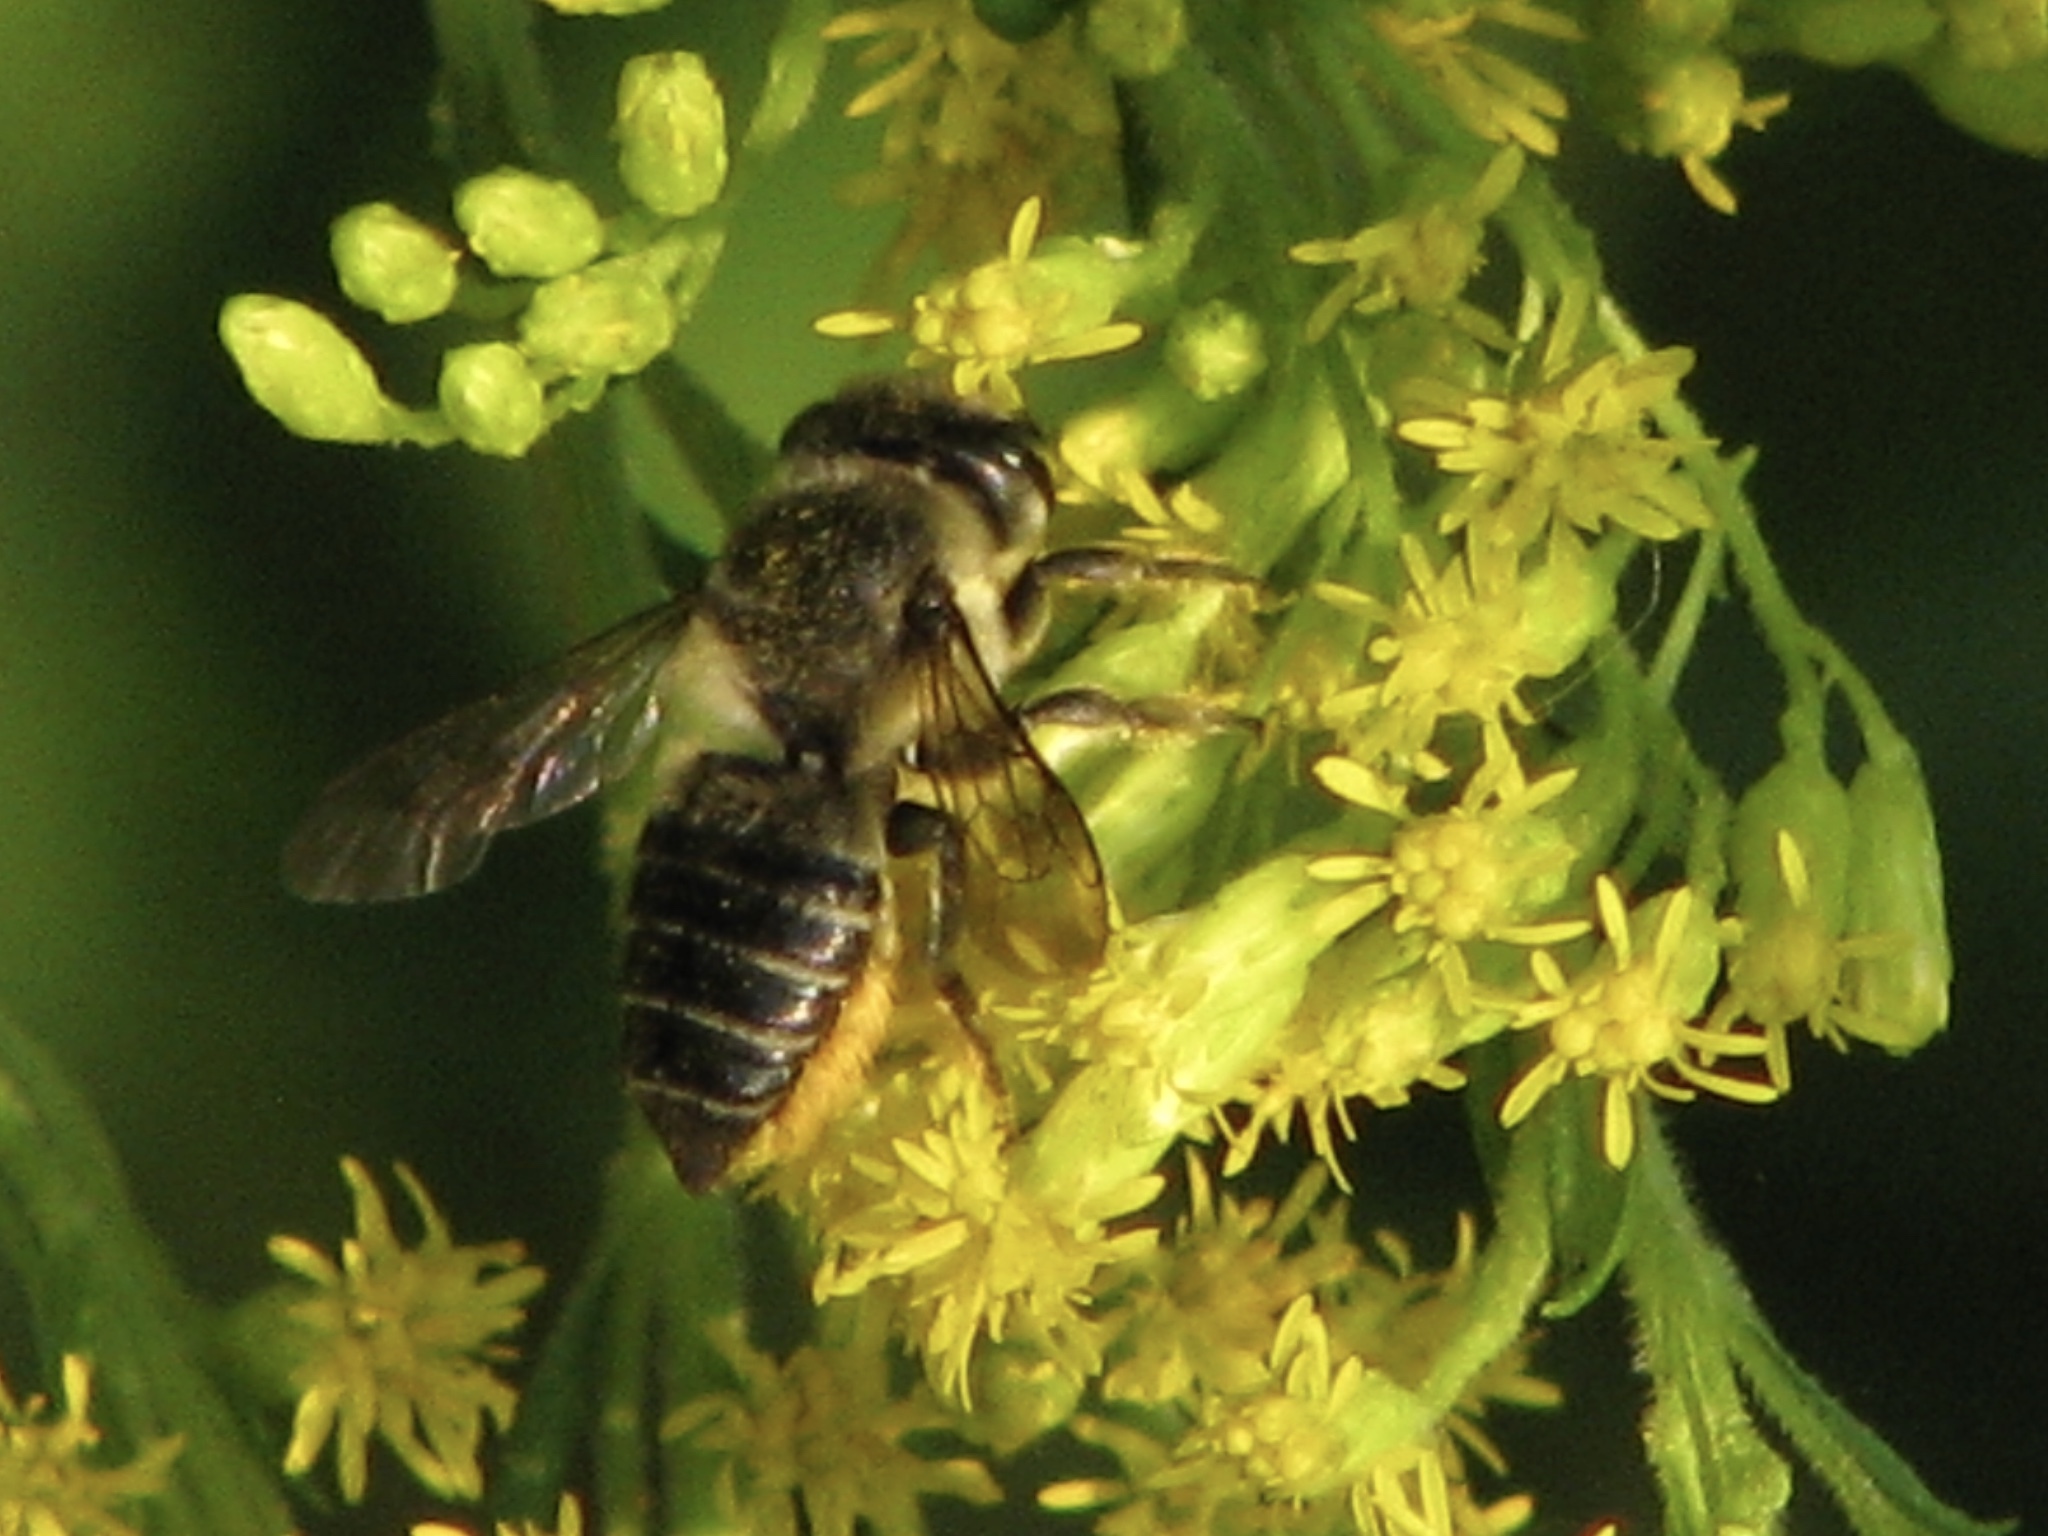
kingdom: Animalia
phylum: Arthropoda
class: Insecta
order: Hymenoptera
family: Megachilidae
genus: Megachile
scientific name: Megachile montivaga
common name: Silver-tailed petalcutter bee
